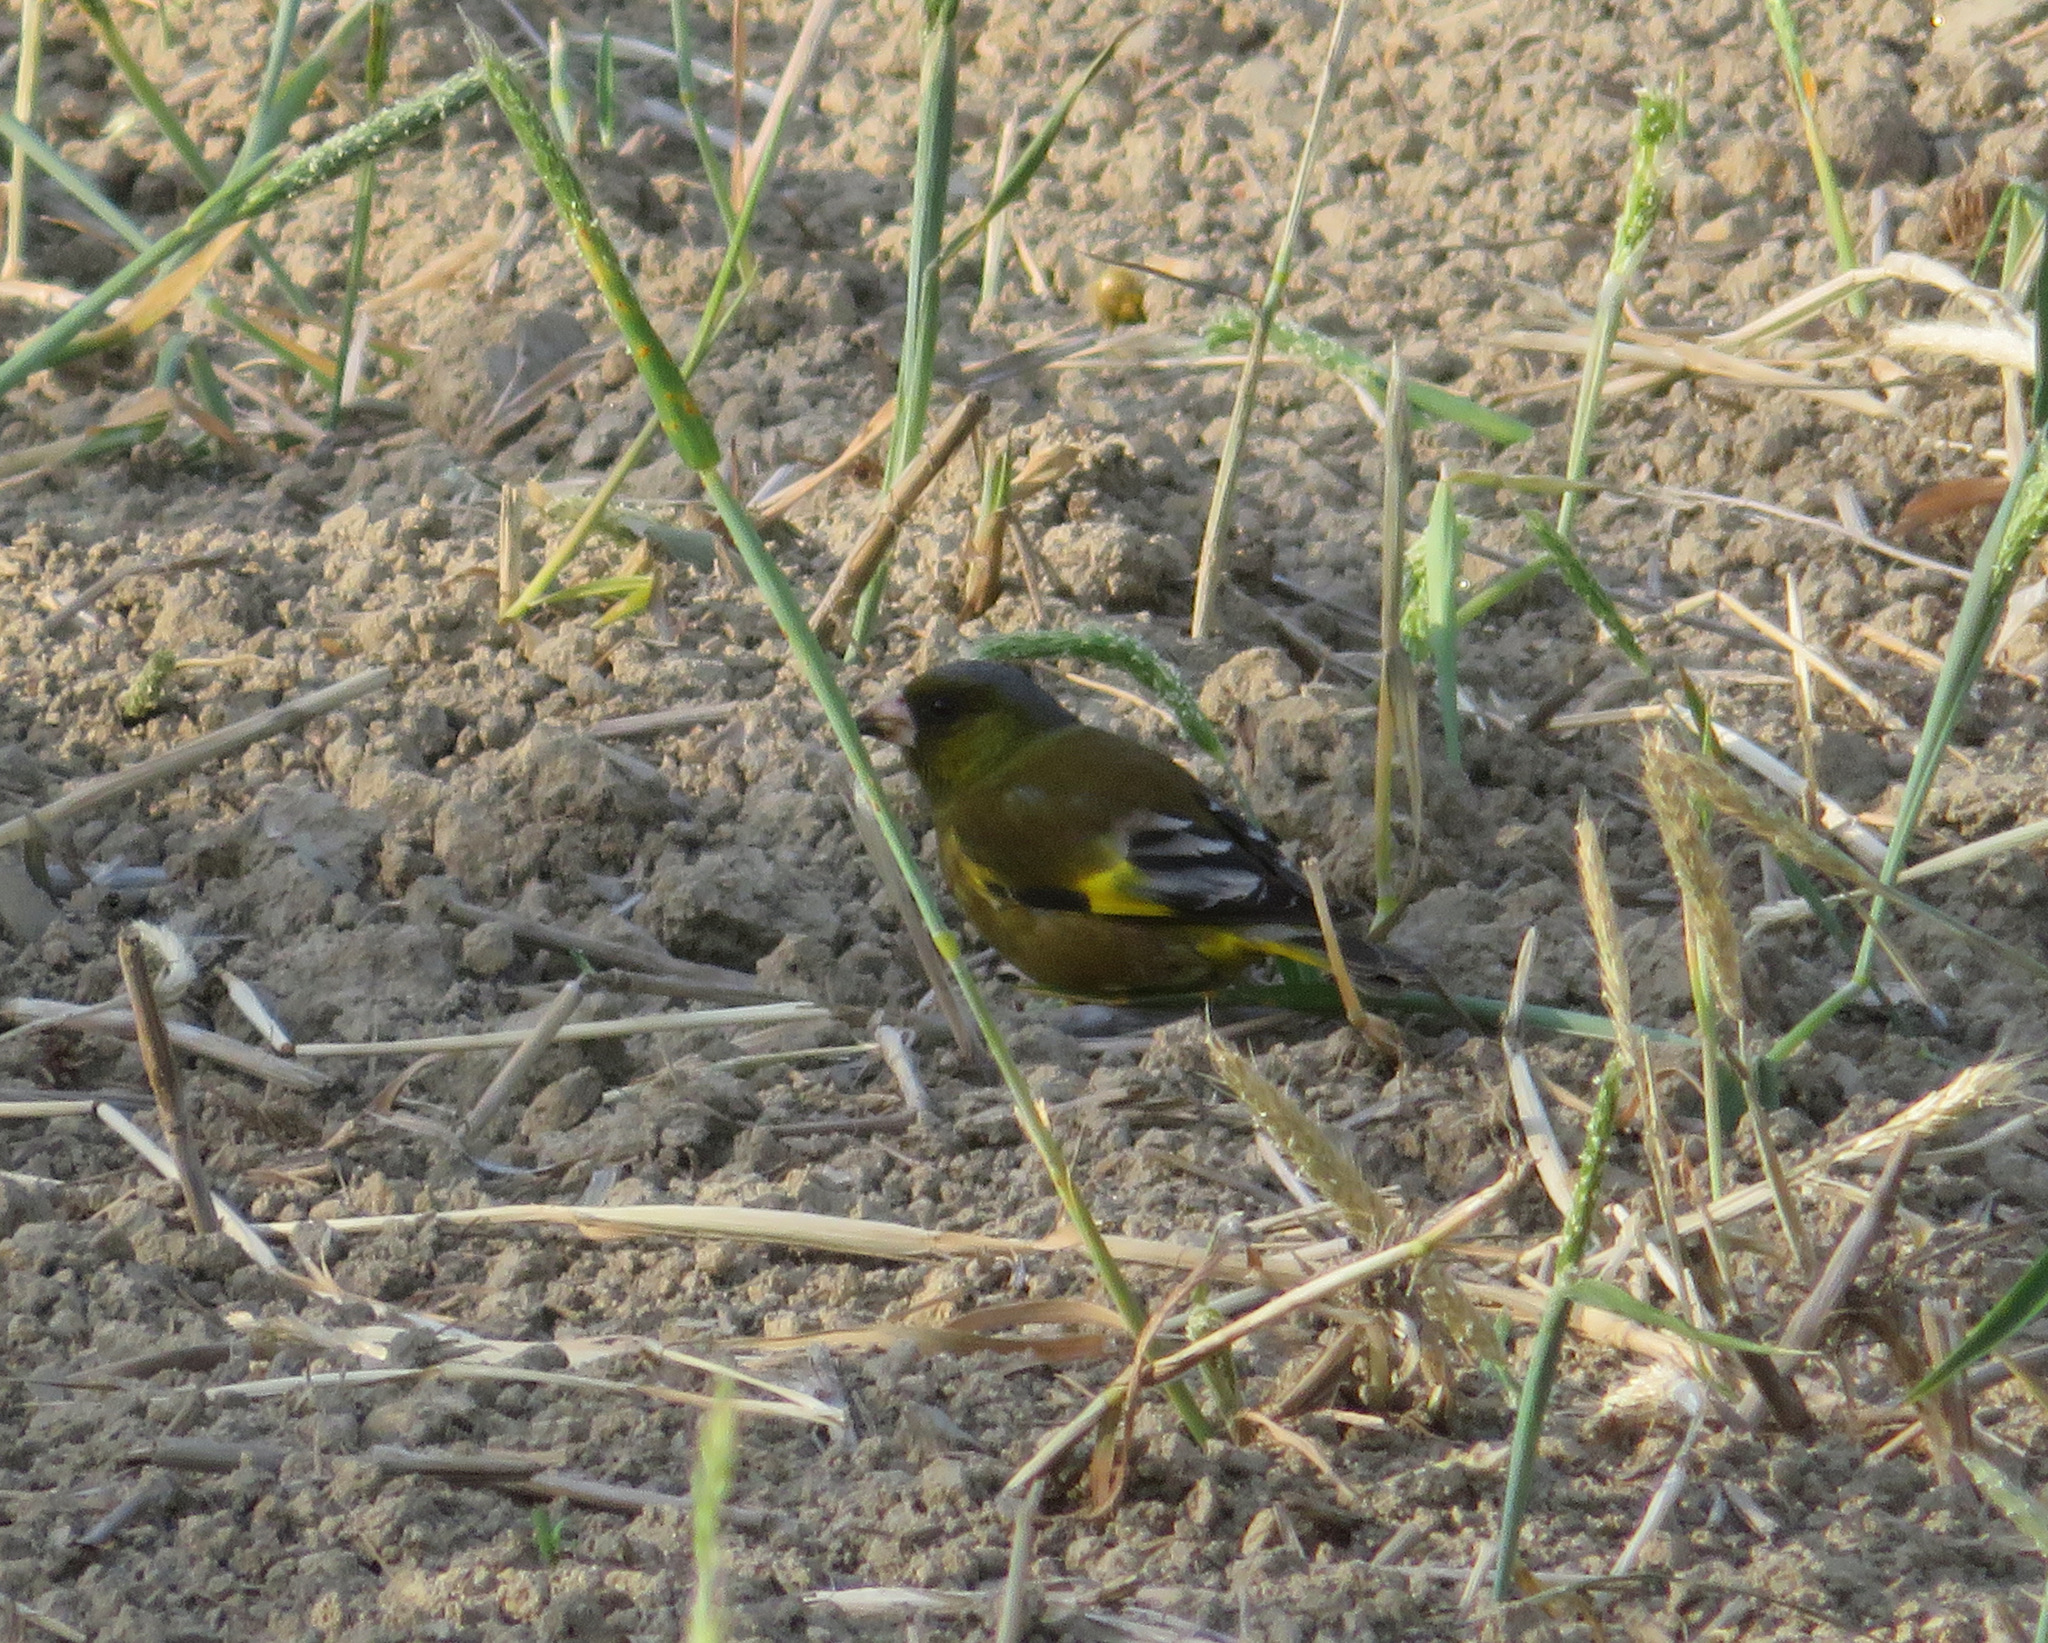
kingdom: Plantae
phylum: Tracheophyta
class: Liliopsida
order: Poales
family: Poaceae
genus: Chloris
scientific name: Chloris sinica
